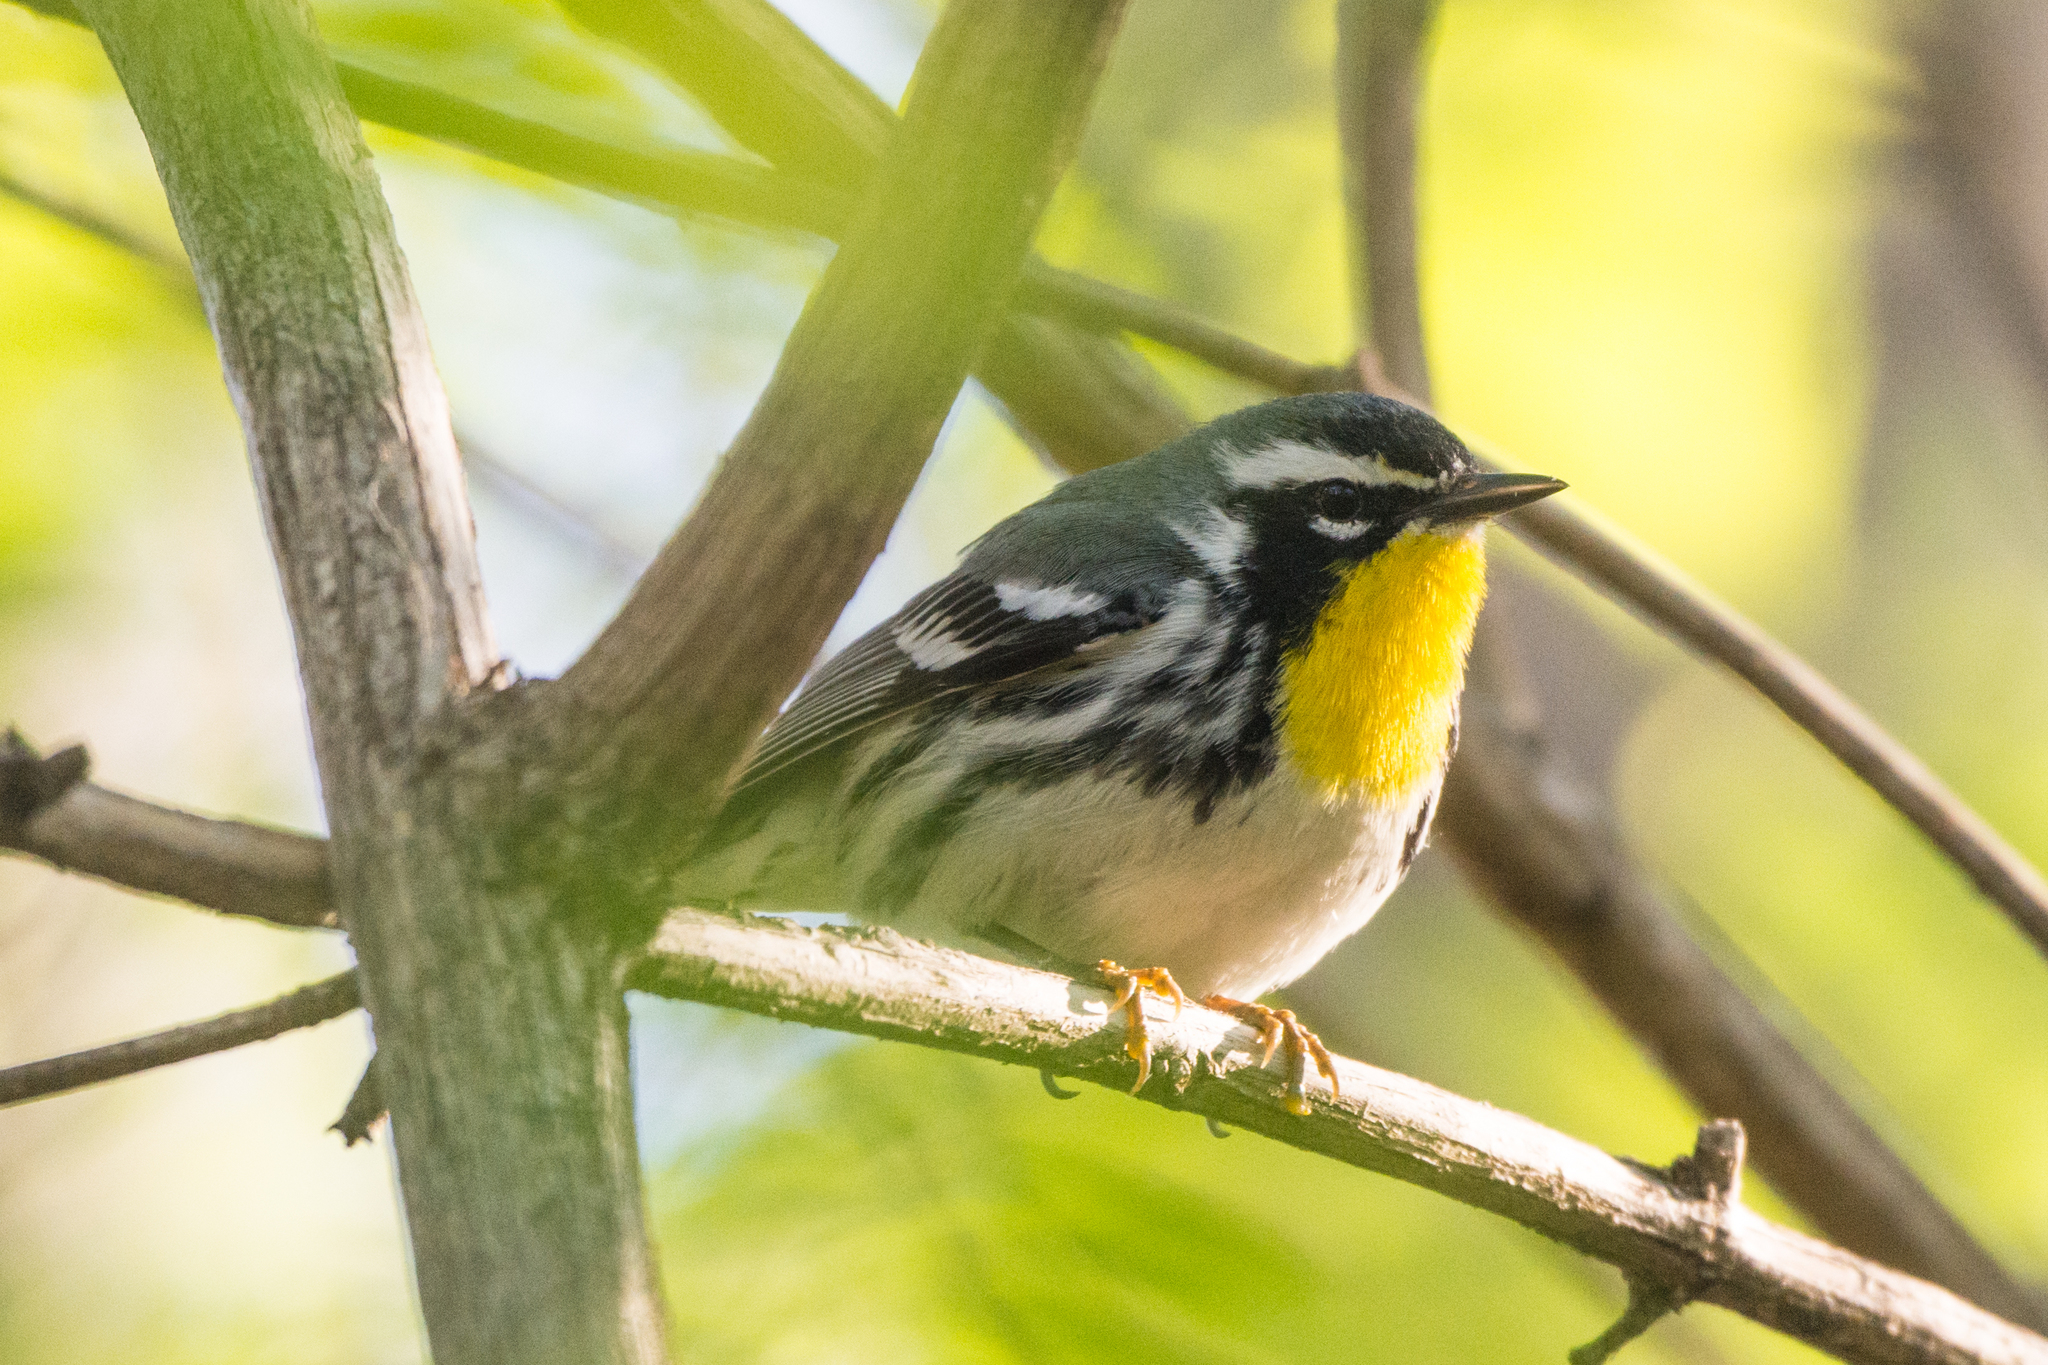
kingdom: Animalia
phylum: Chordata
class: Aves
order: Passeriformes
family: Parulidae
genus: Setophaga
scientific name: Setophaga dominica
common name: Yellow-throated warbler
